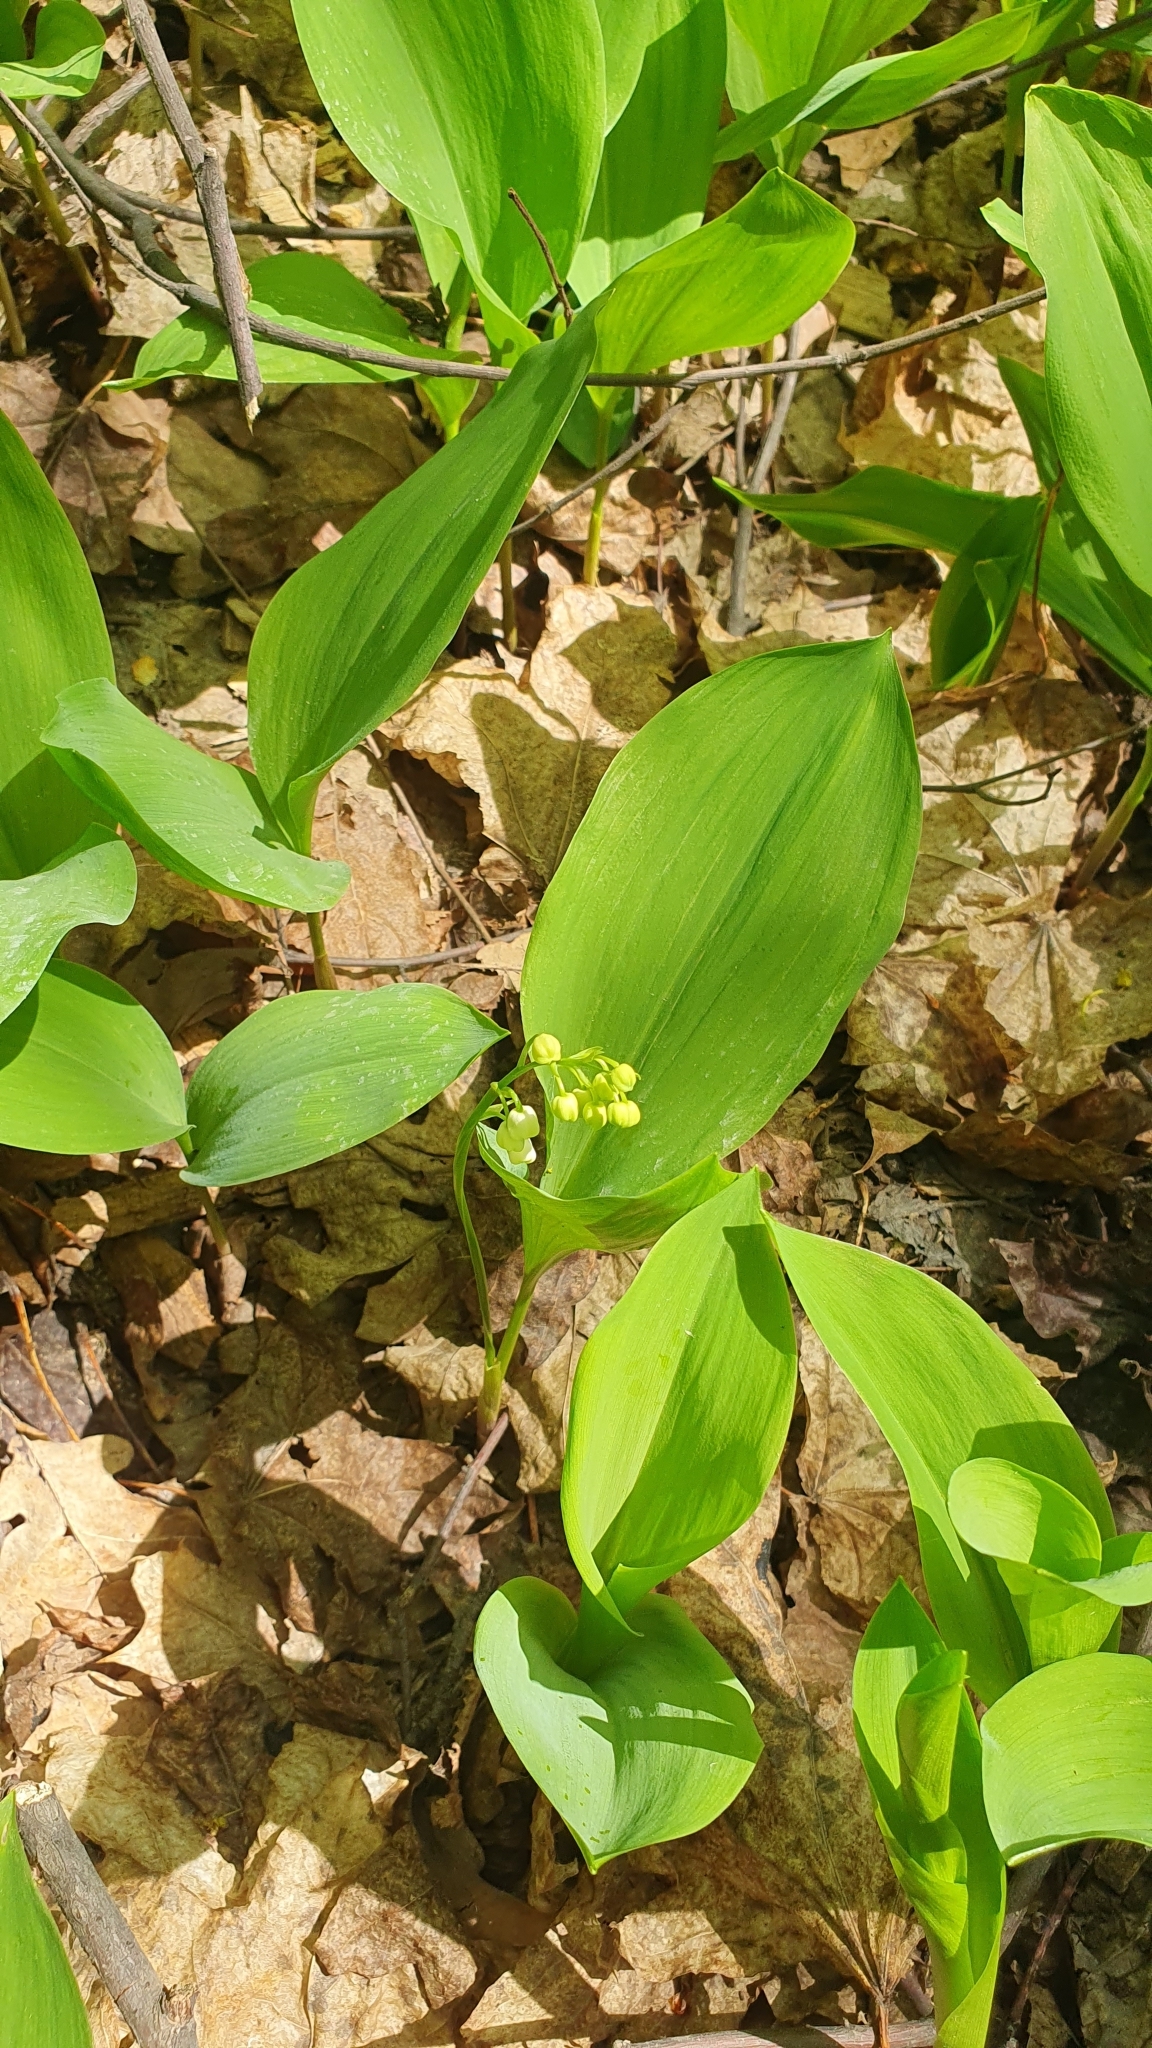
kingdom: Plantae
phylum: Tracheophyta
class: Liliopsida
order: Asparagales
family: Asparagaceae
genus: Convallaria
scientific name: Convallaria majalis
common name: Lily-of-the-valley
